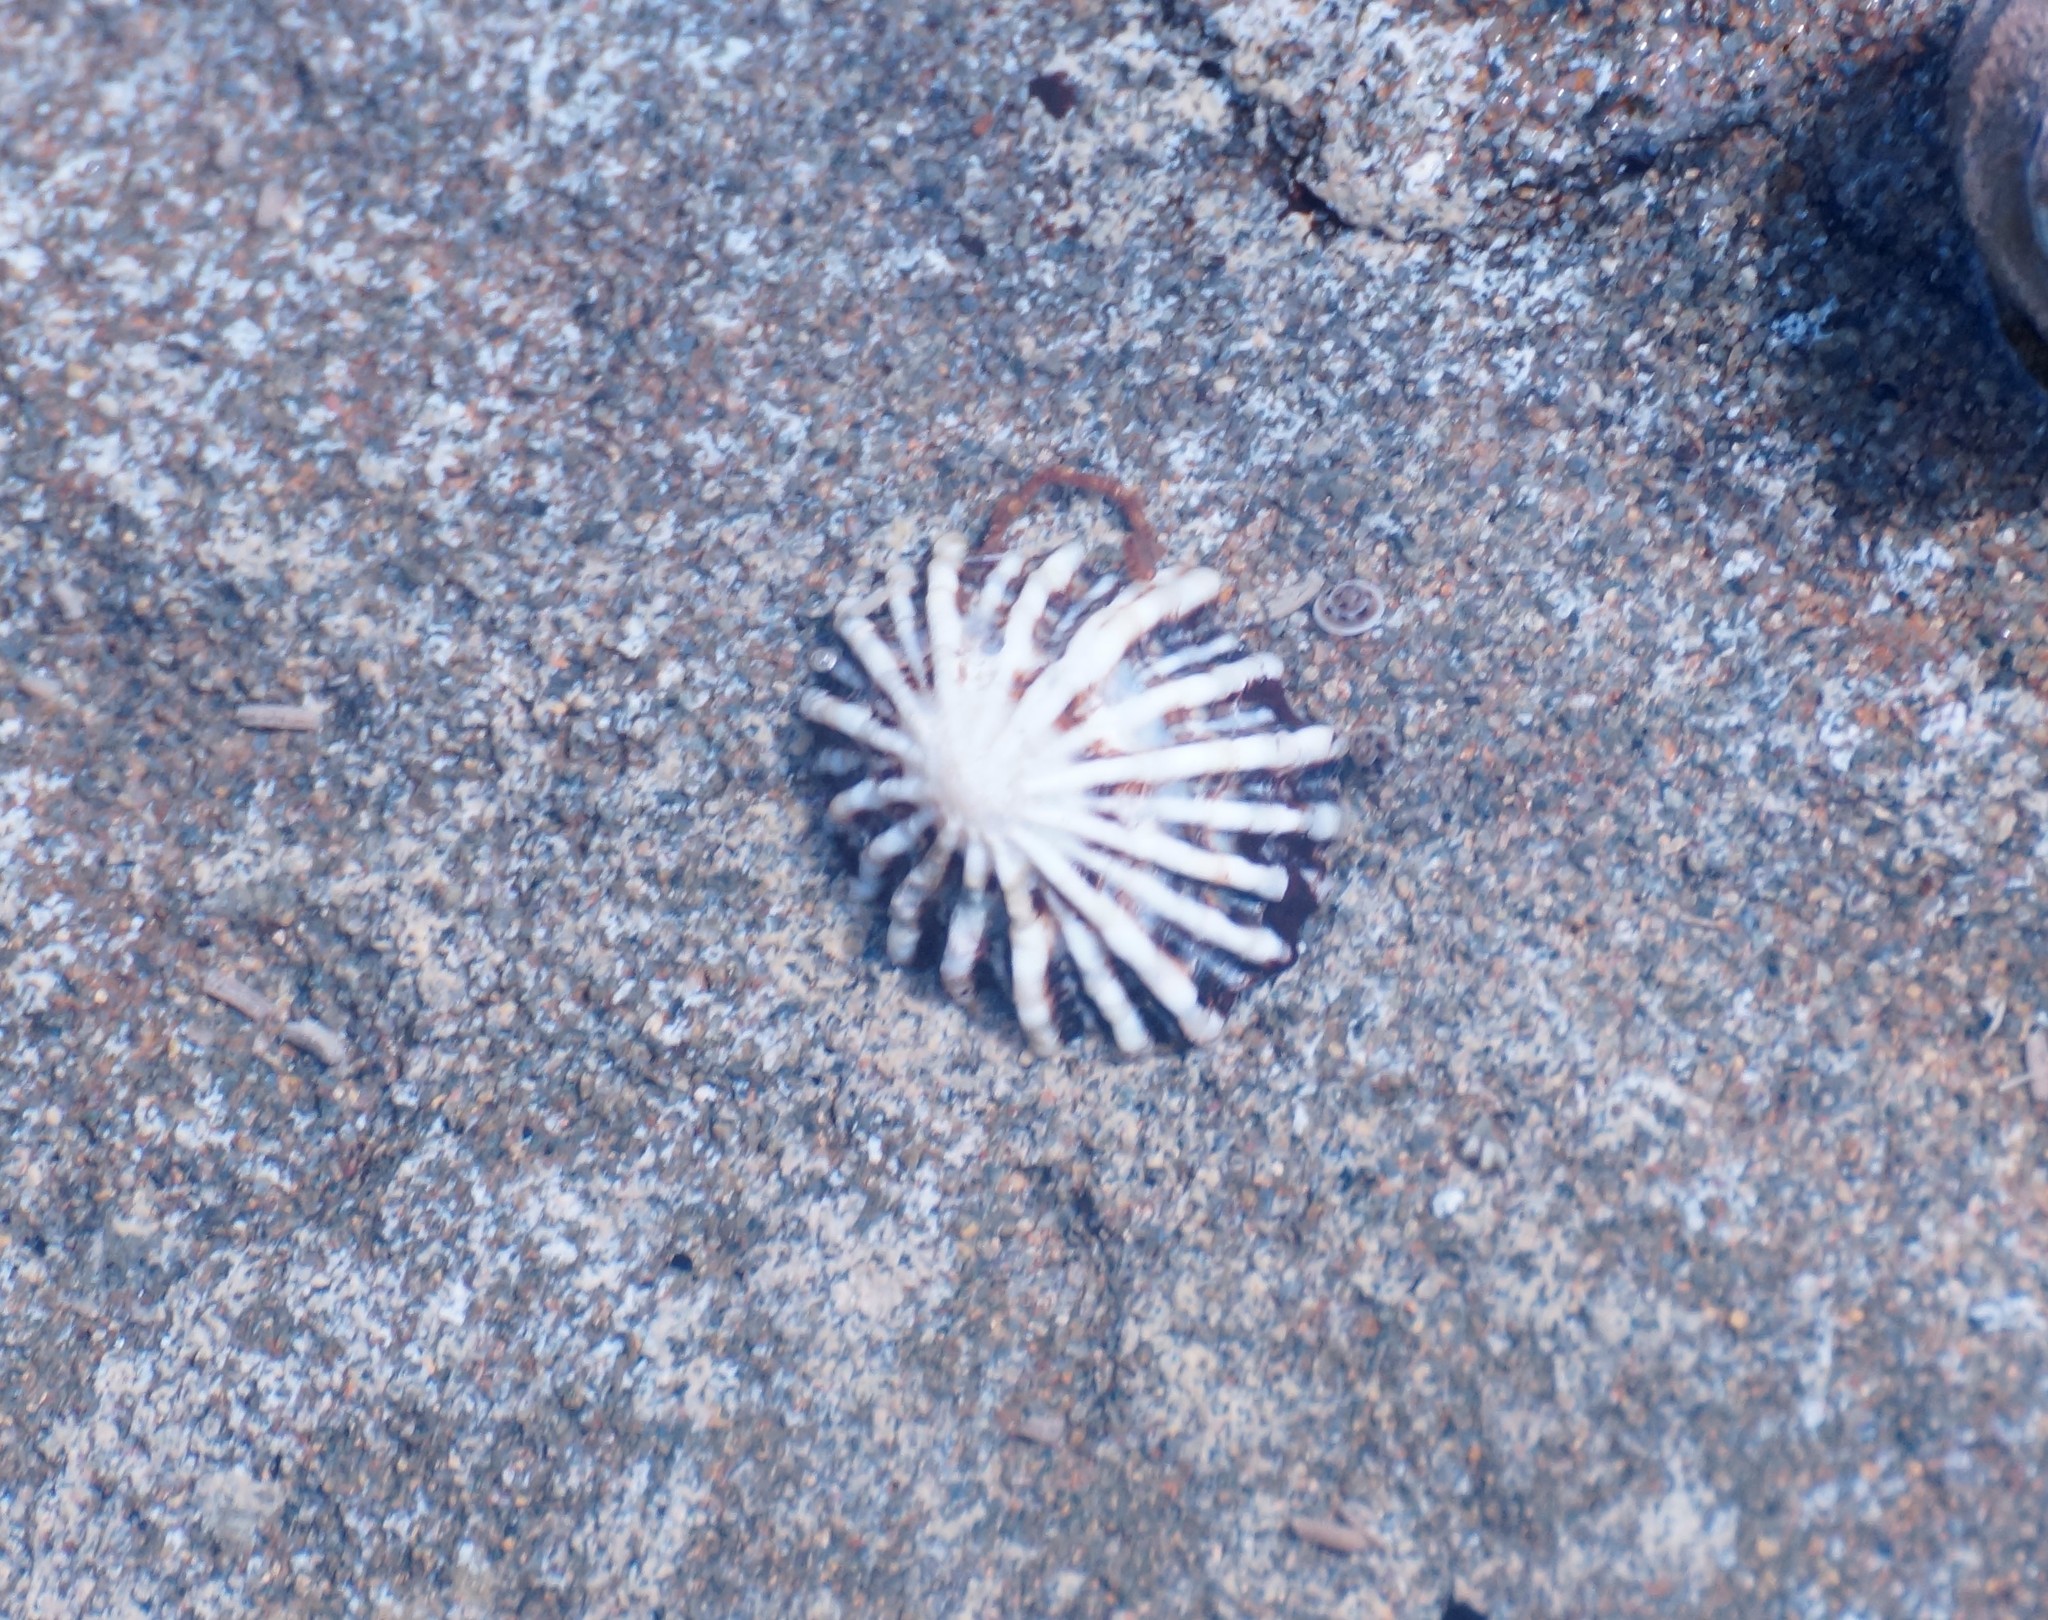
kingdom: Animalia
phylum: Mollusca
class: Gastropoda
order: Siphonariida
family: Siphonariidae
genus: Siphonaria
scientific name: Siphonaria diemenensis
